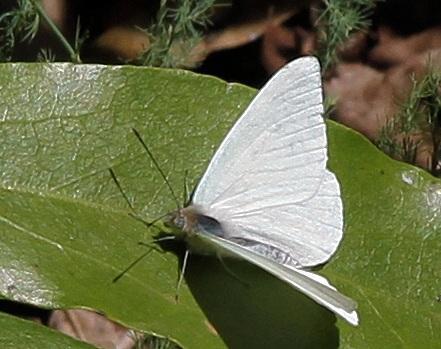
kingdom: Animalia
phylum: Arthropoda
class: Insecta
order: Lepidoptera
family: Pieridae
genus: Dixeia
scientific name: Dixeia pigea
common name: Ant-heap small white
